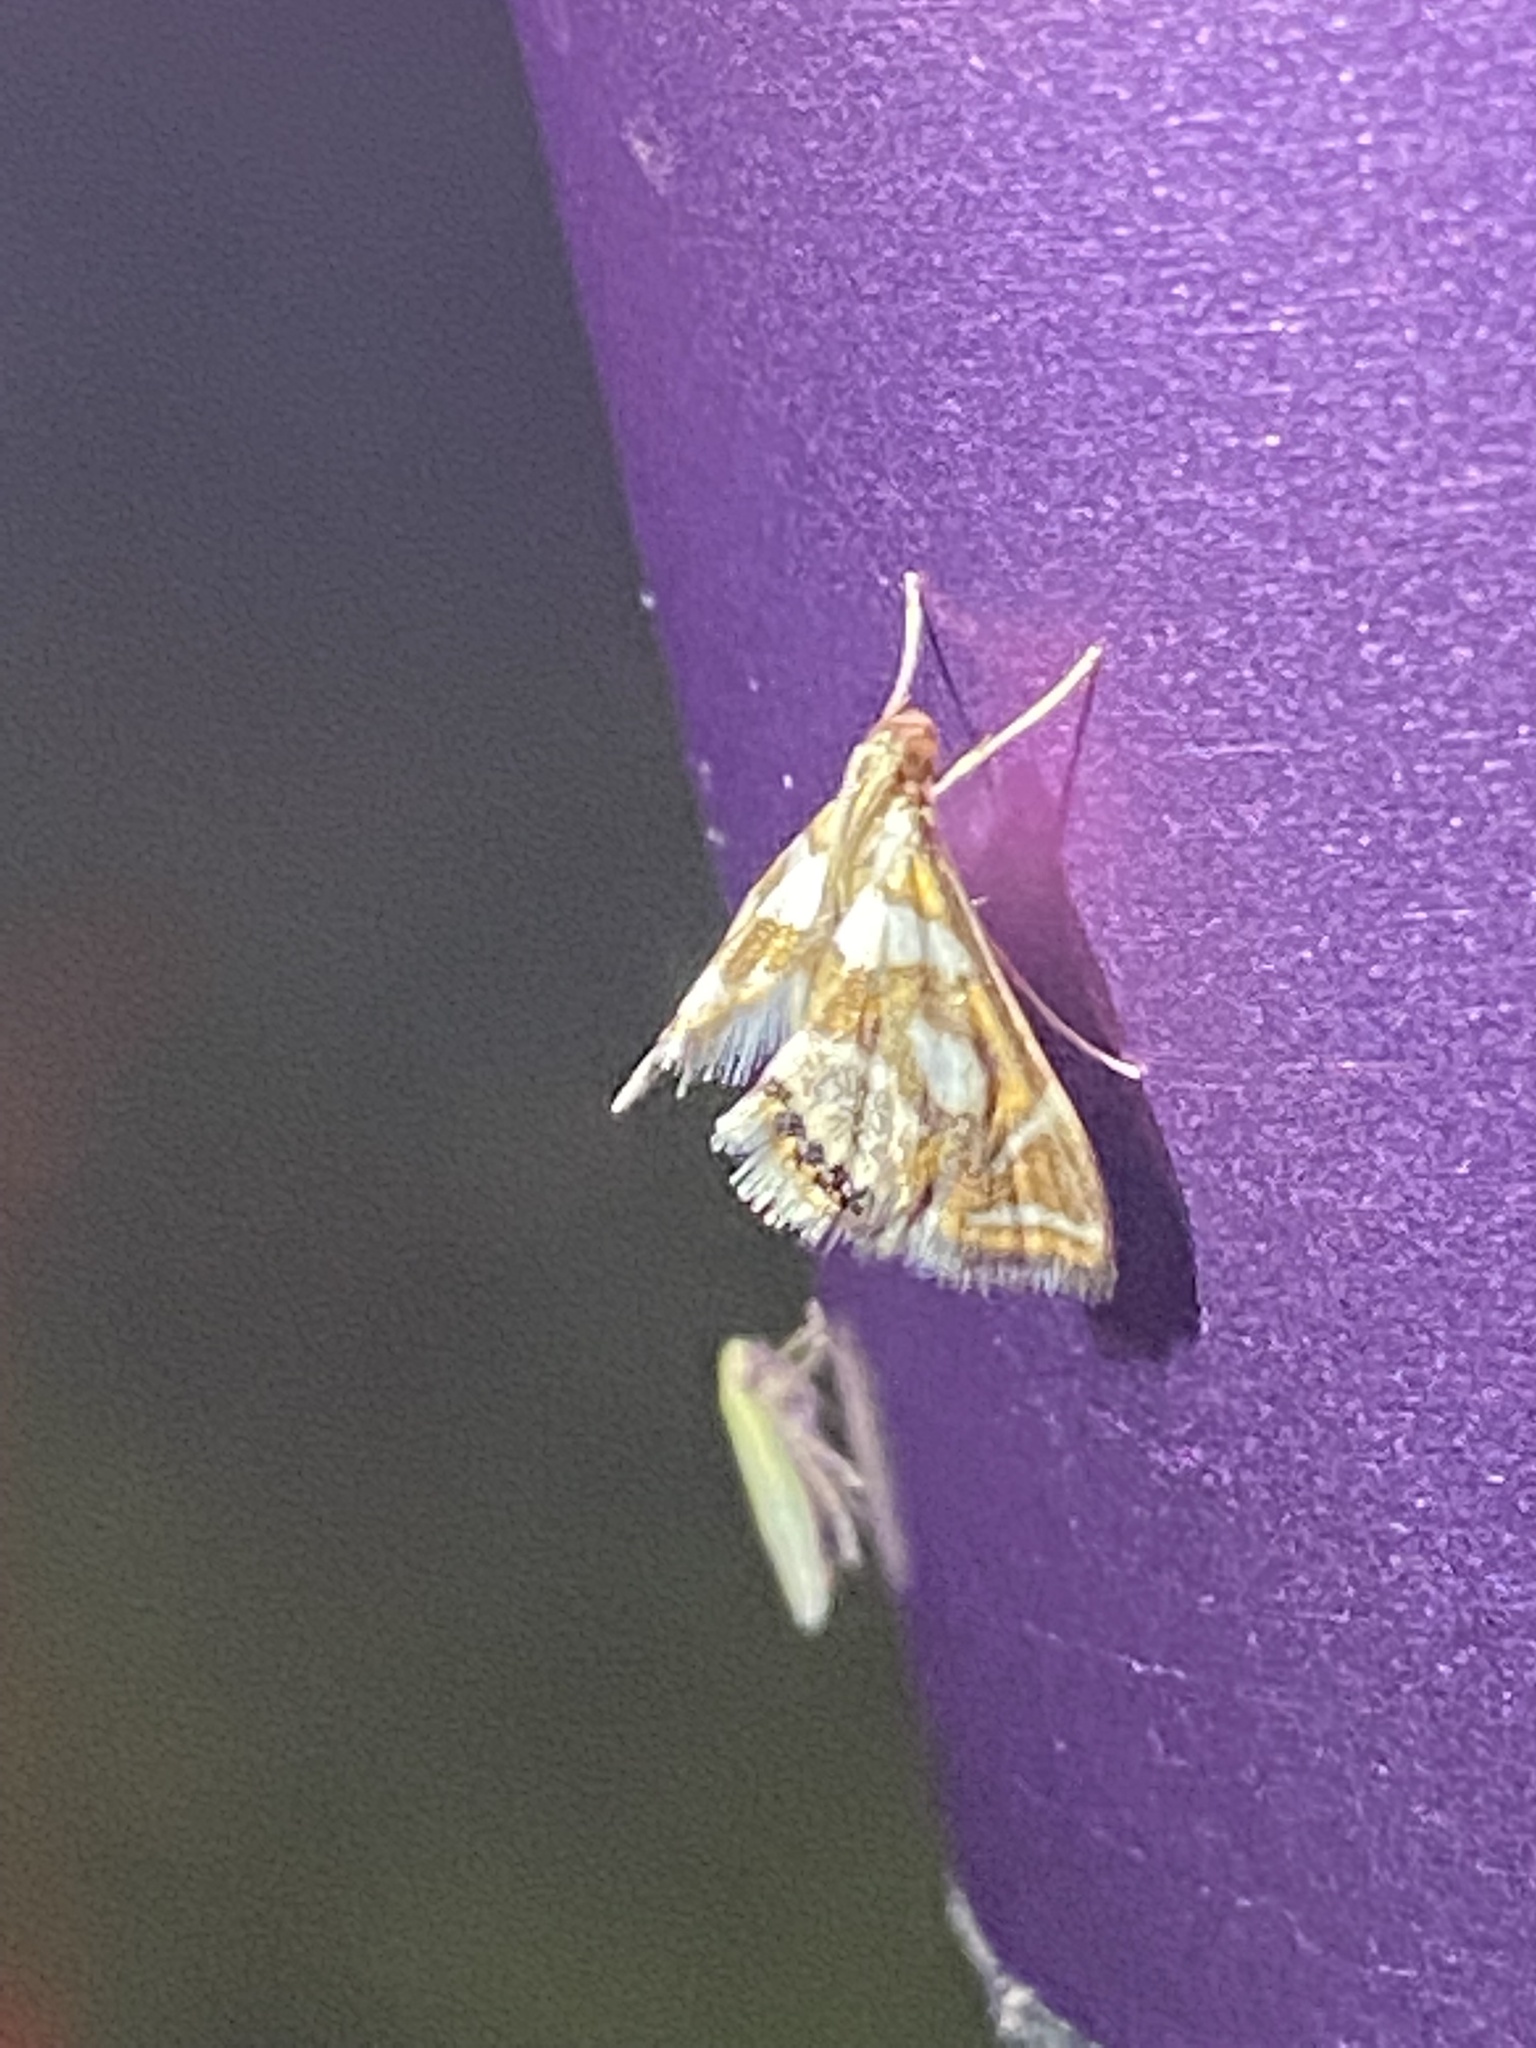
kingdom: Animalia
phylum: Arthropoda
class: Insecta
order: Lepidoptera
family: Crambidae
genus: Chrysendeton
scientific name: Chrysendeton medicinalis
